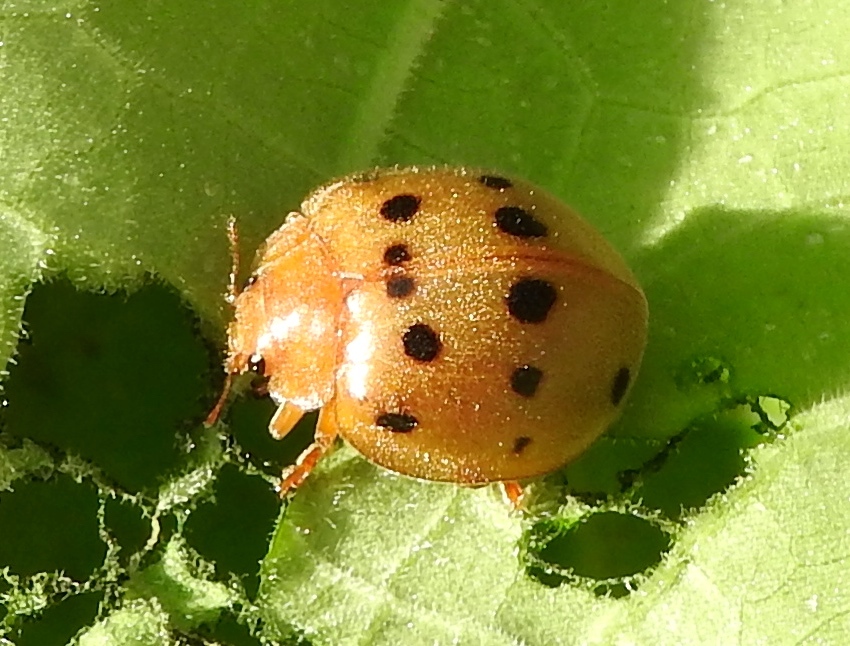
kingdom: Animalia
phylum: Arthropoda
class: Insecta
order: Coleoptera
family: Coccinellidae
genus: Epilachna
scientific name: Epilachna tredecimnotata
